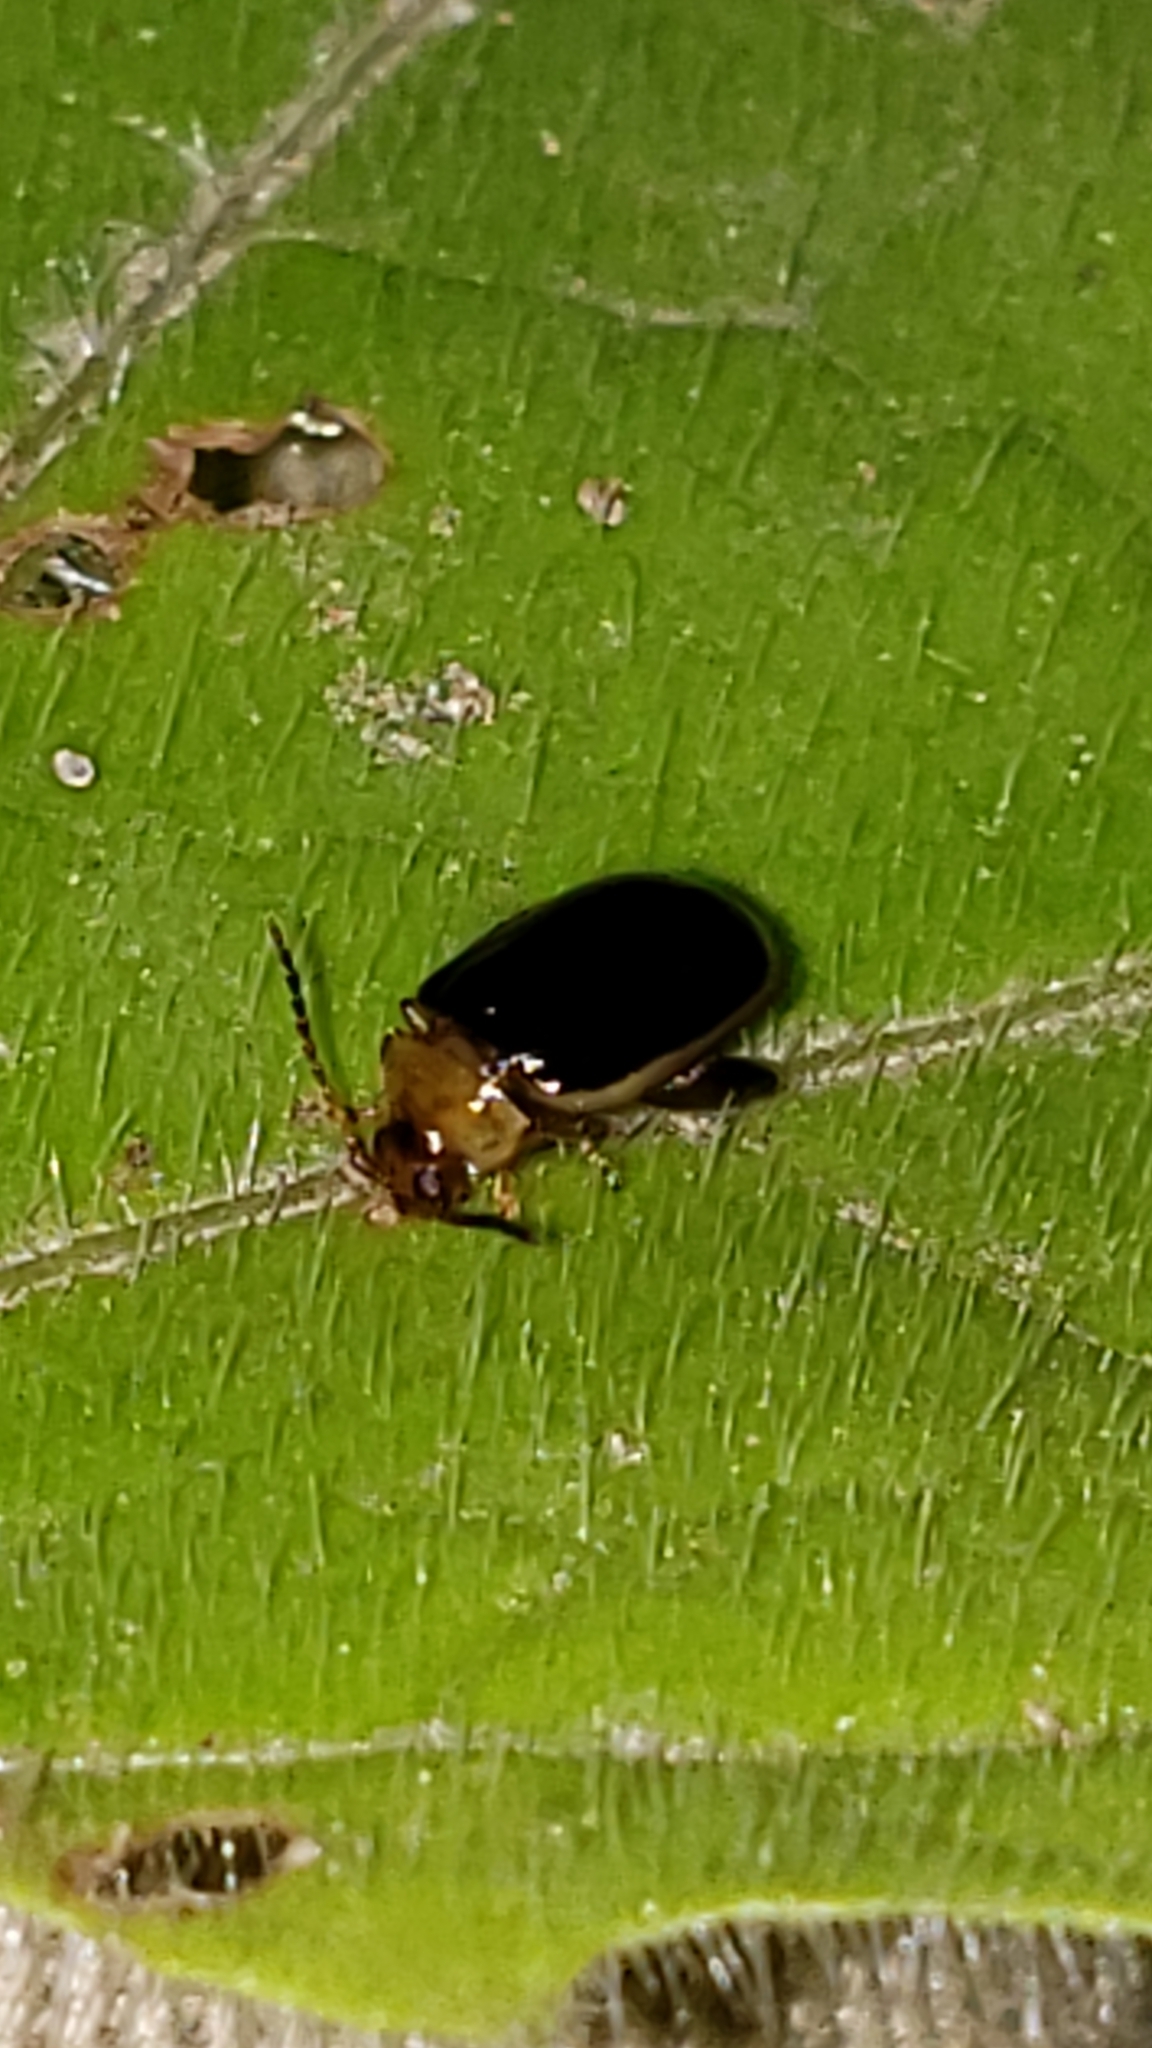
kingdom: Animalia
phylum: Arthropoda
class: Insecta
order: Coleoptera
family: Chrysomelidae
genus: Capraita
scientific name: Capraita circumdata
